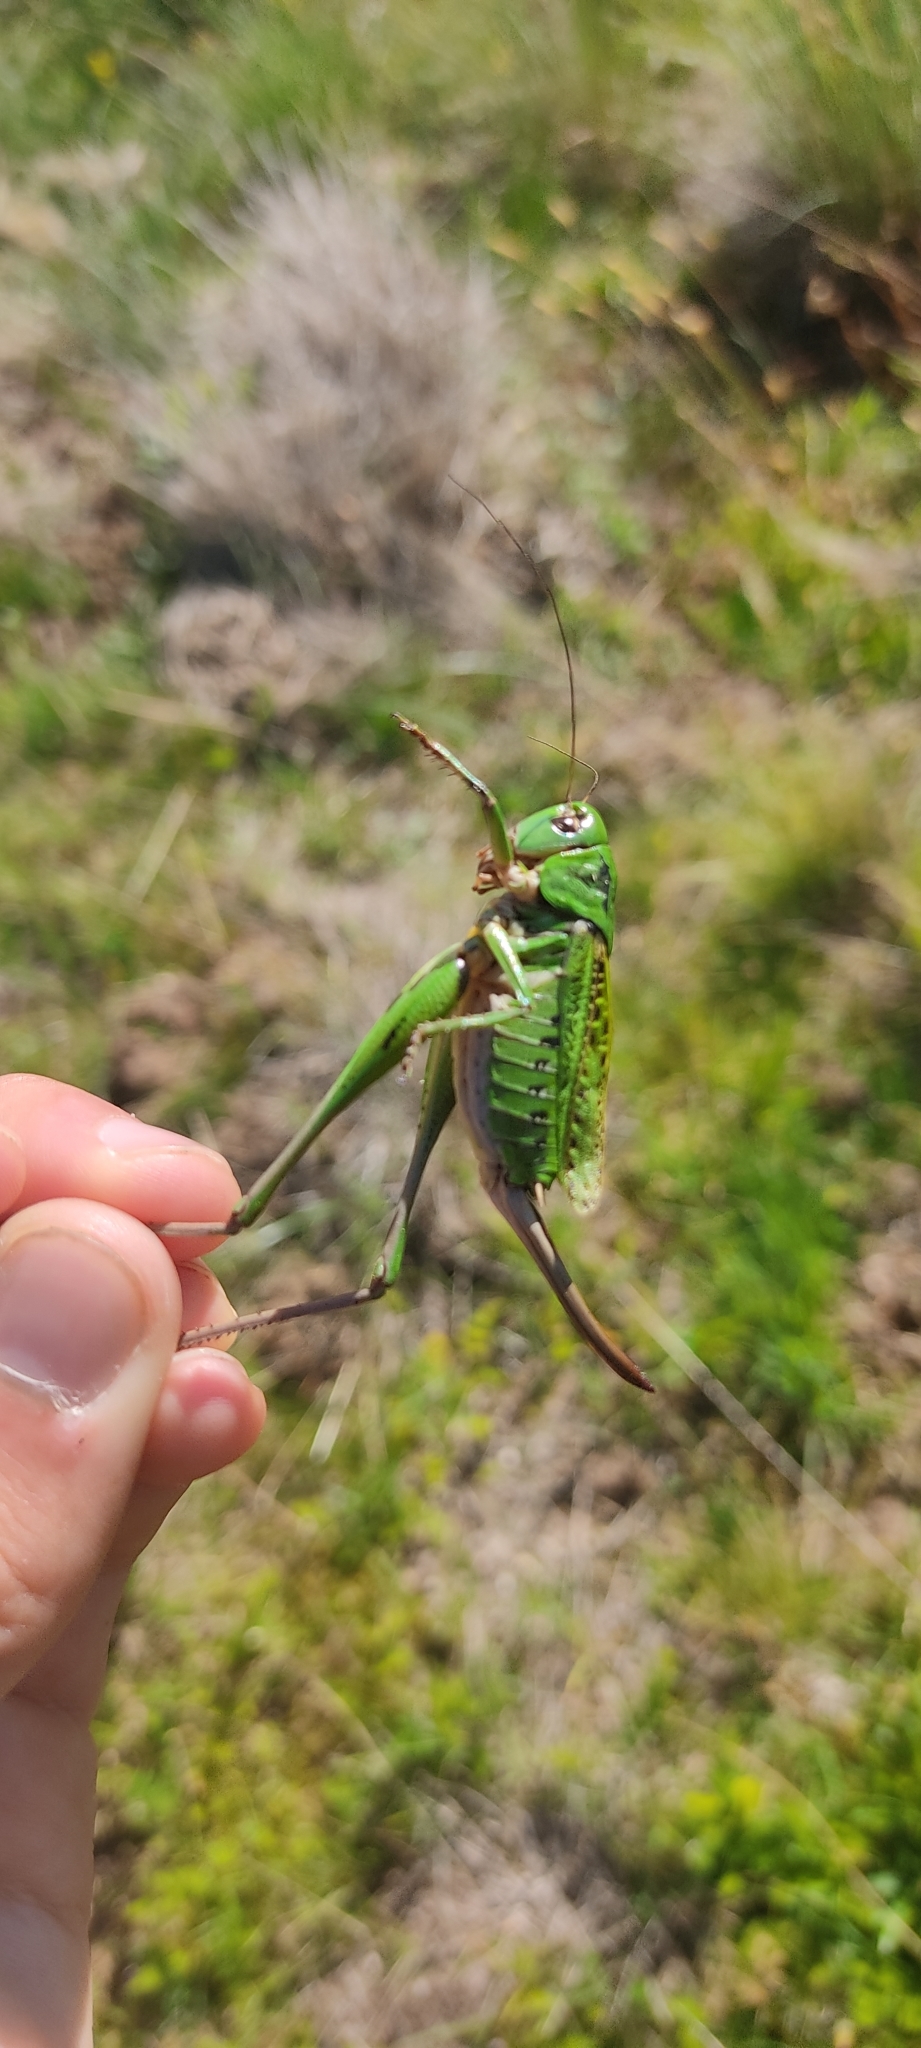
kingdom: Animalia
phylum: Arthropoda
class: Insecta
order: Orthoptera
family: Tettigoniidae
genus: Decticus
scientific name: Decticus verrucivorus
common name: Wart-biter
